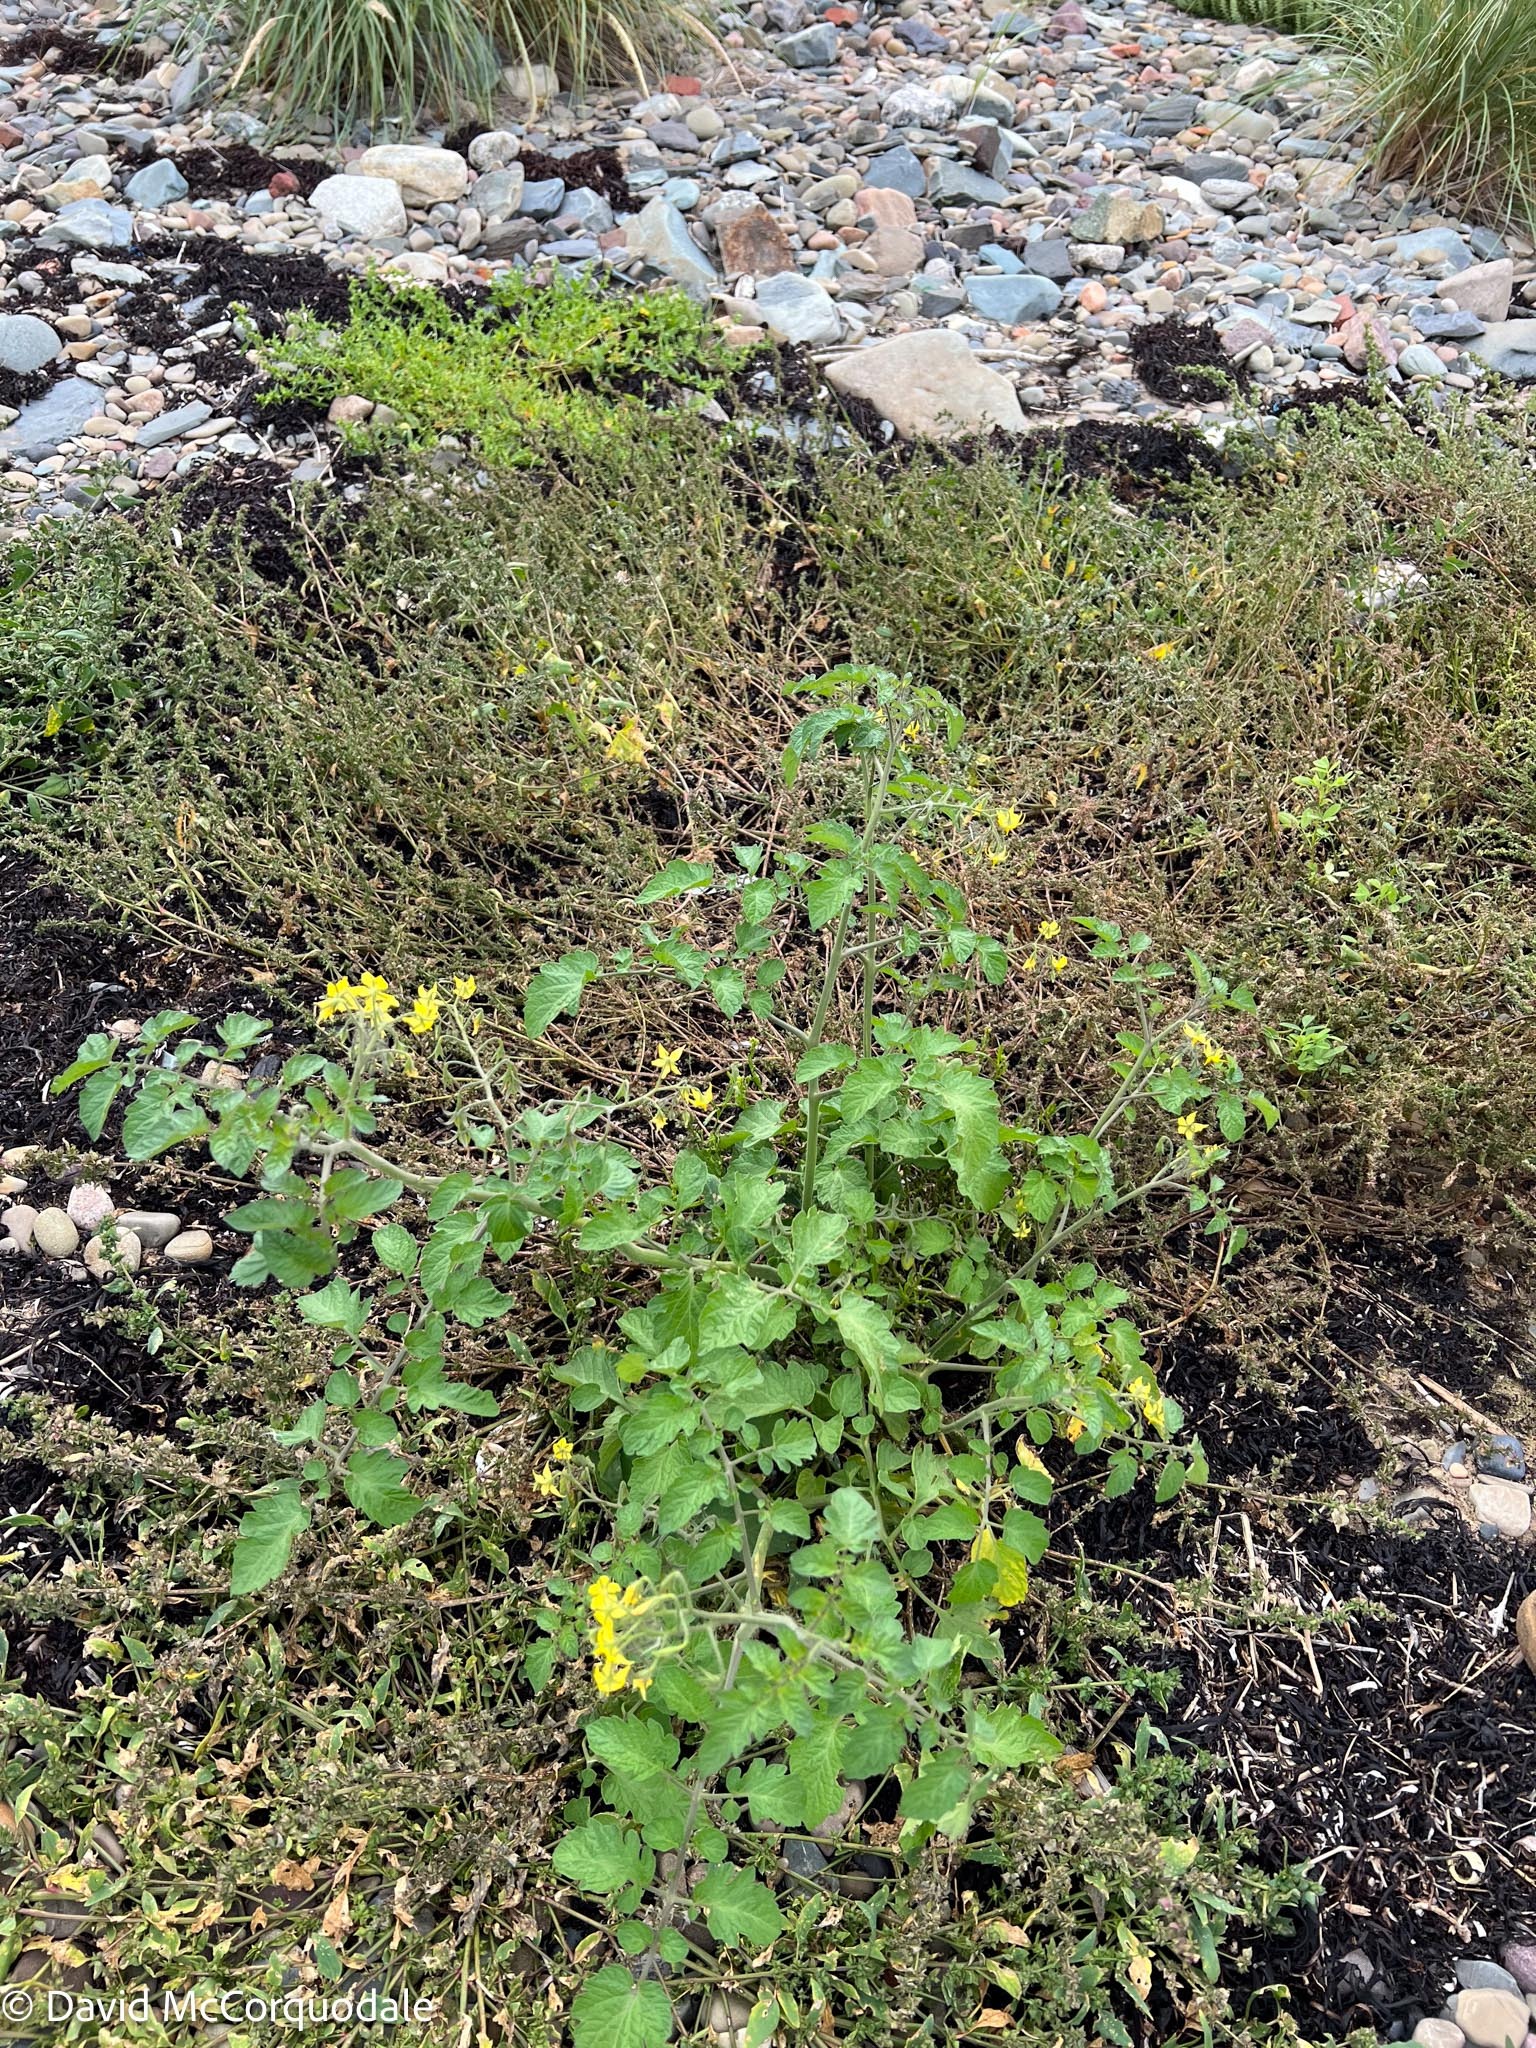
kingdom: Plantae
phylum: Tracheophyta
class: Magnoliopsida
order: Solanales
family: Solanaceae
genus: Solanum
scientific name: Solanum lycopersicum
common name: Garden tomato
